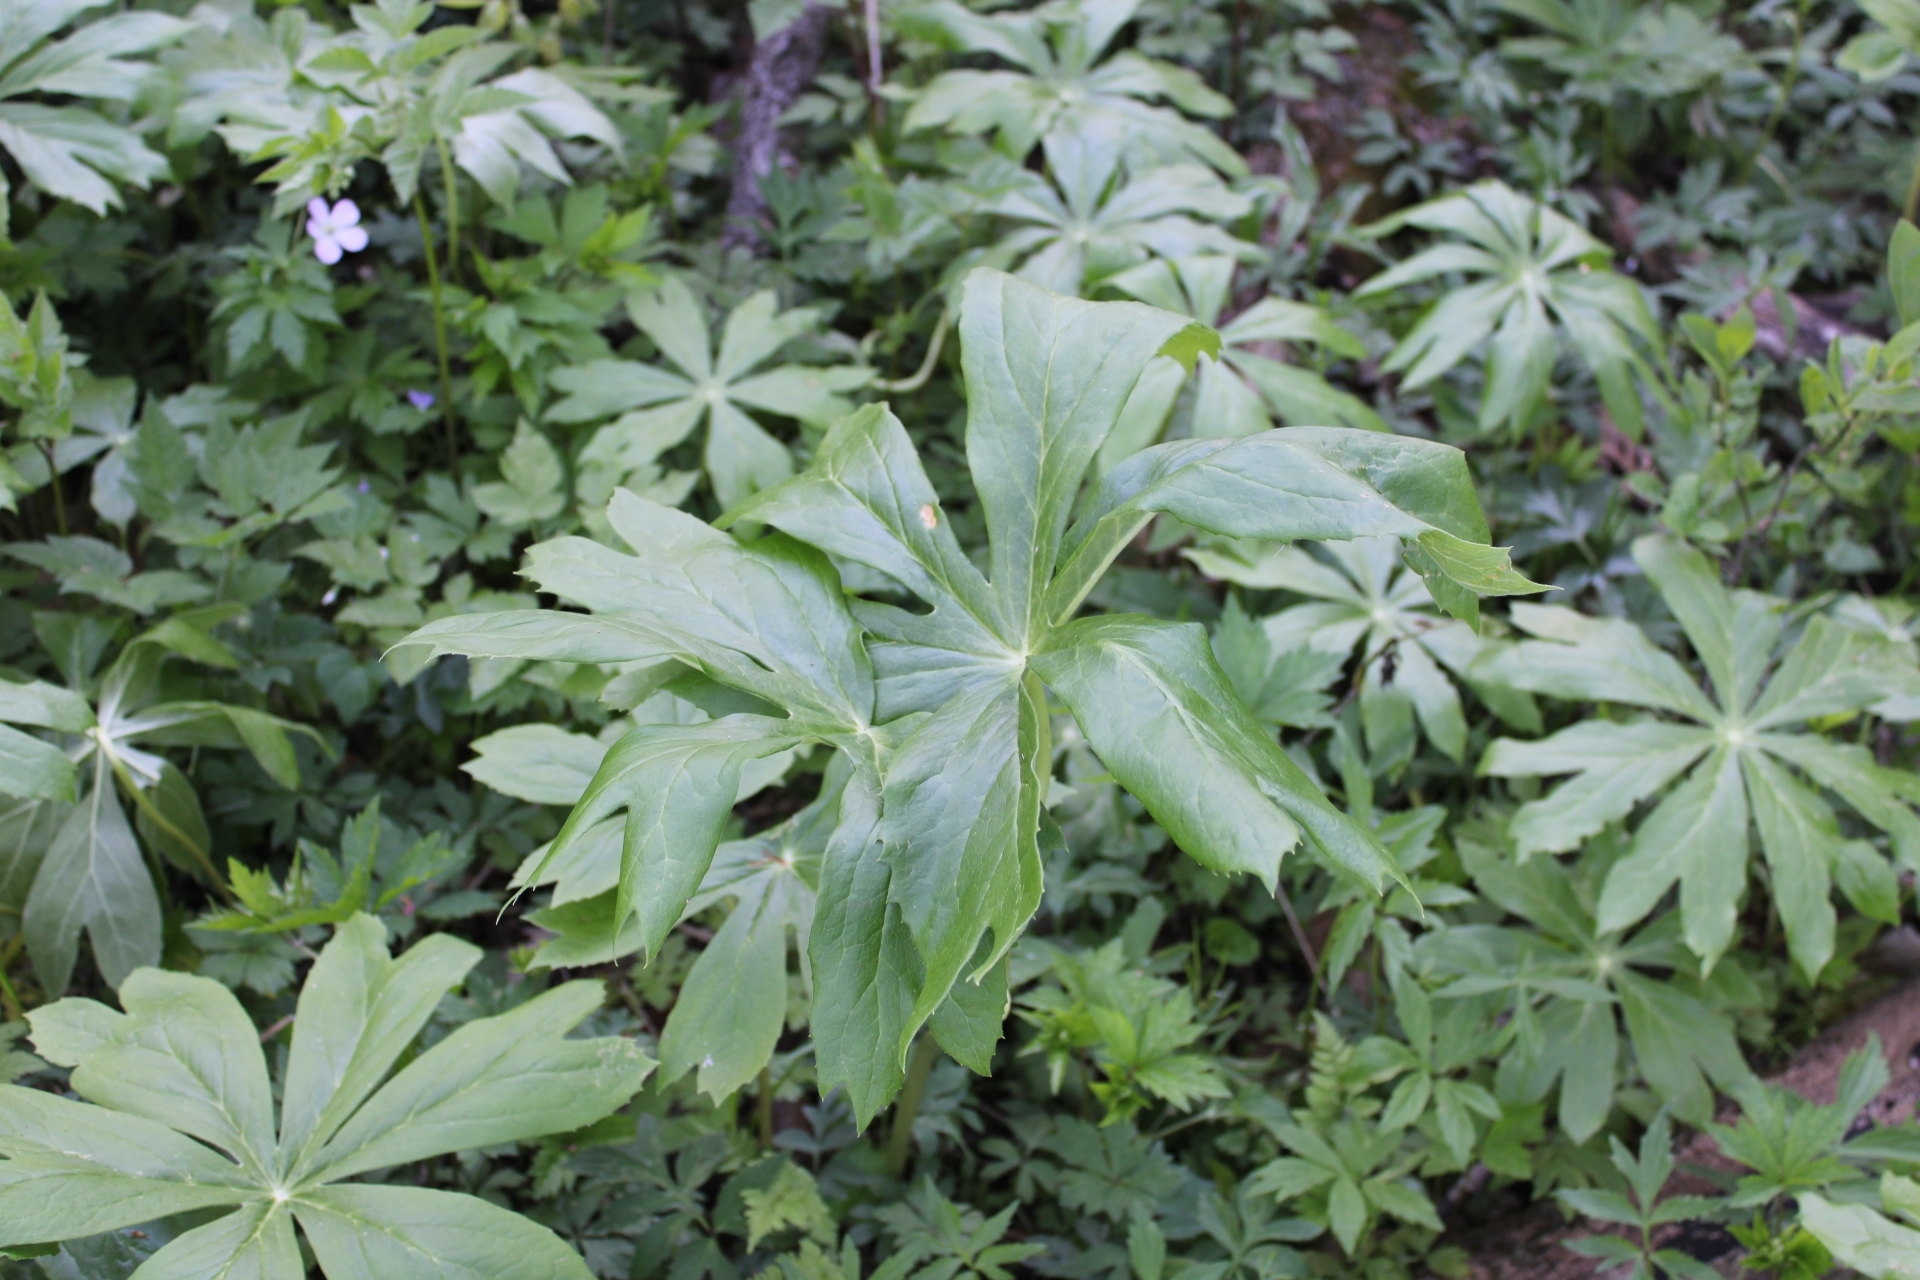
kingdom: Plantae
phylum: Tracheophyta
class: Magnoliopsida
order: Ranunculales
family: Berberidaceae
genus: Podophyllum
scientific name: Podophyllum peltatum
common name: Wild mandrake
